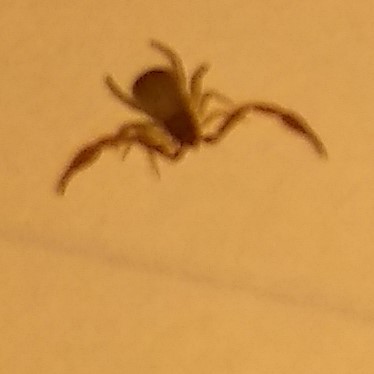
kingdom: Animalia
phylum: Arthropoda
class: Arachnida
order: Pseudoscorpiones
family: Cheliferidae
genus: Chelifer
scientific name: Chelifer cancroides
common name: House false-scorpion
